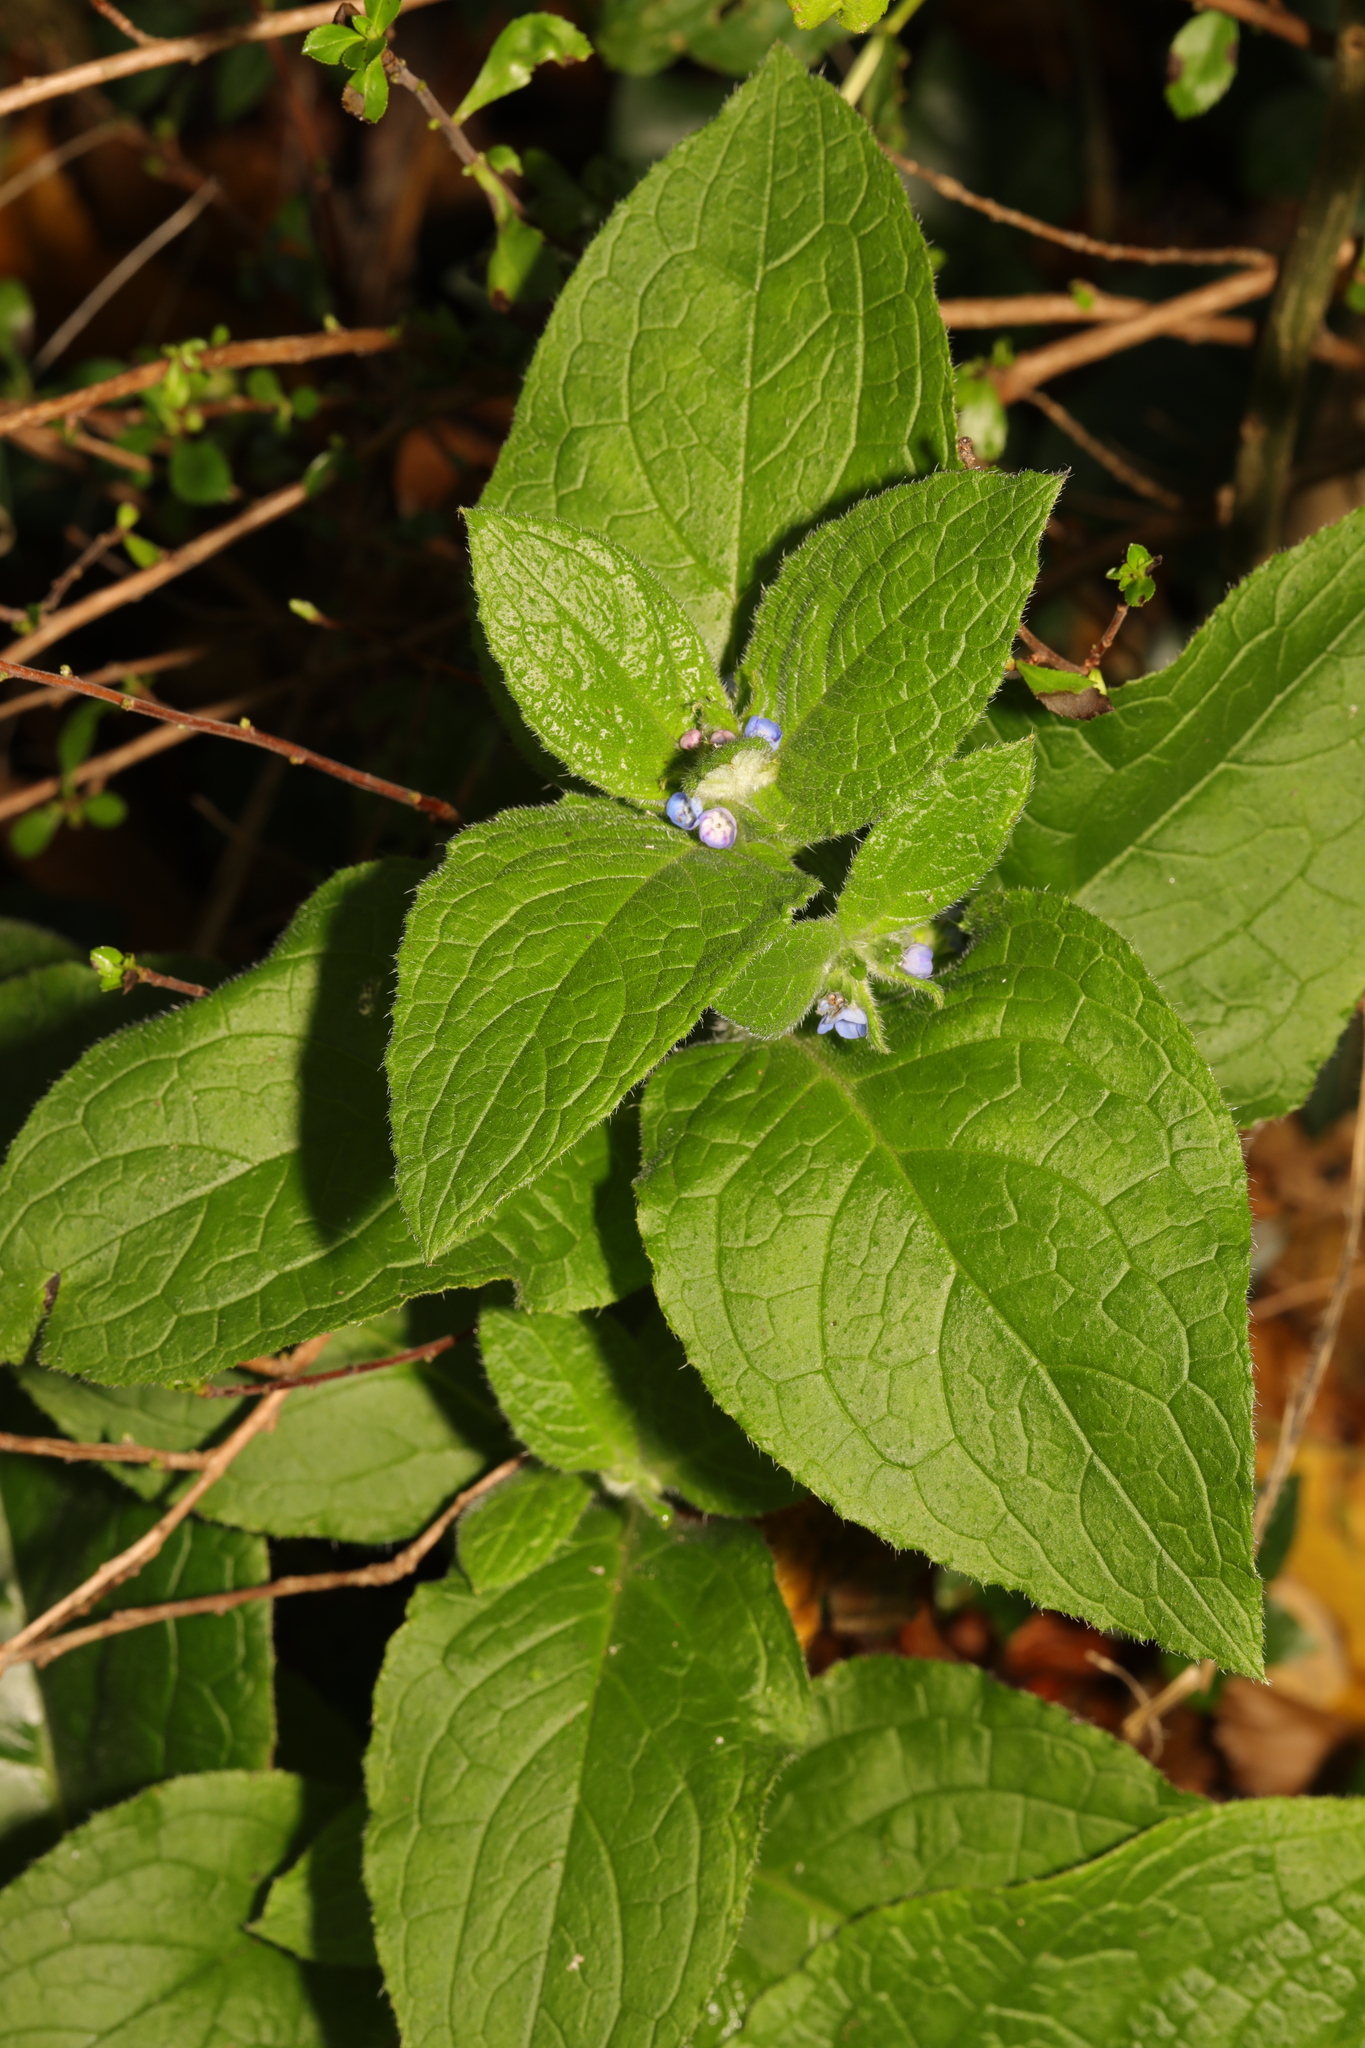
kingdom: Plantae
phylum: Tracheophyta
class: Magnoliopsida
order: Boraginales
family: Boraginaceae
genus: Pentaglottis
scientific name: Pentaglottis sempervirens
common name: Green alkanet
